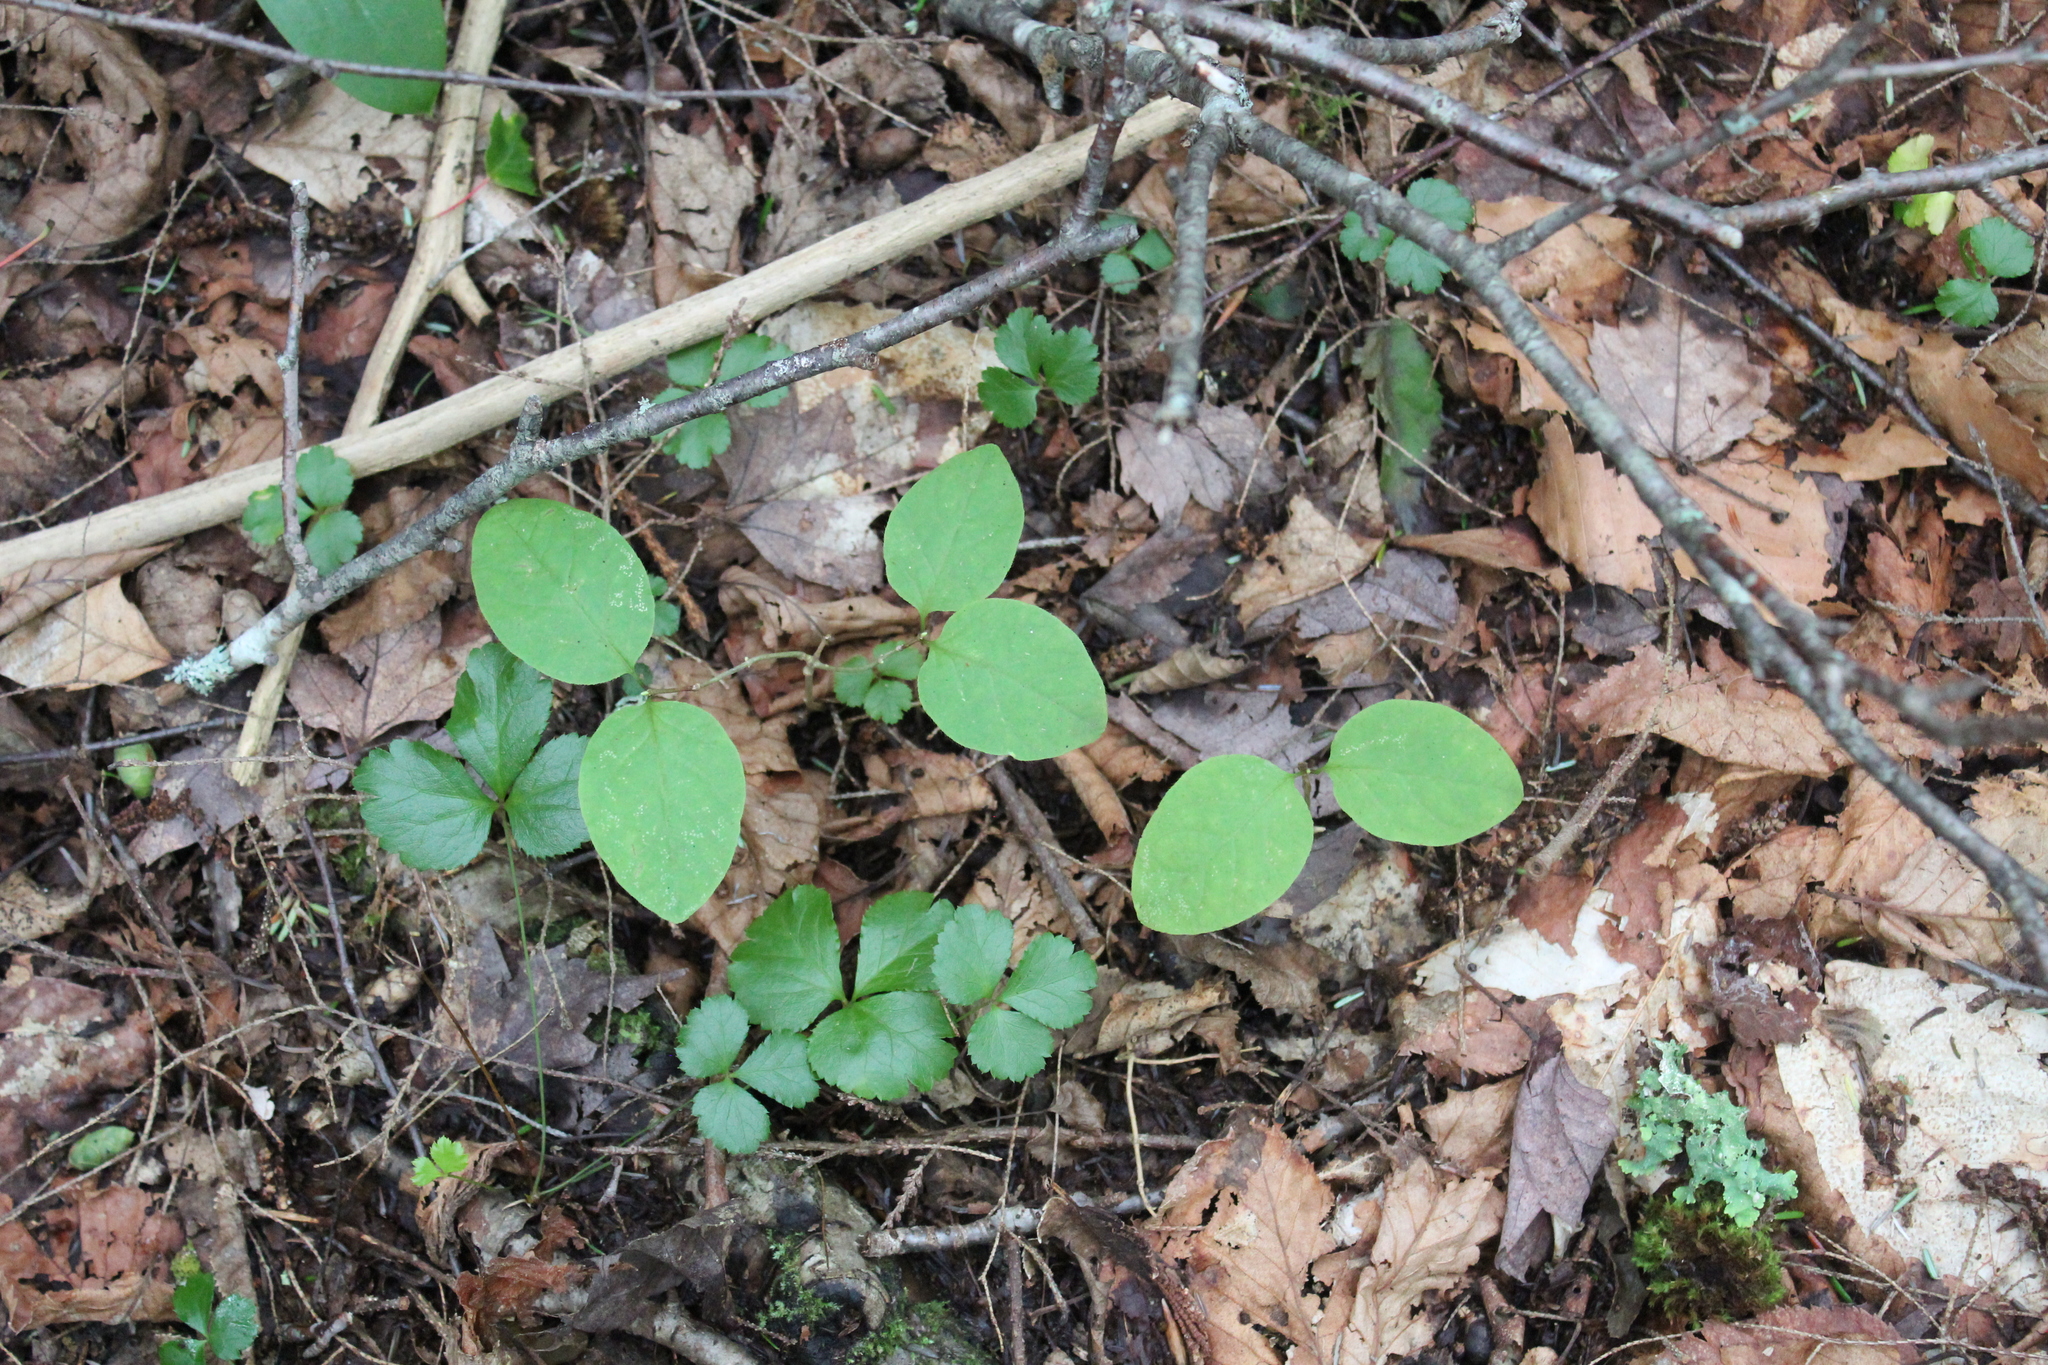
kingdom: Plantae
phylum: Tracheophyta
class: Magnoliopsida
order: Ranunculales
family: Ranunculaceae
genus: Coptis
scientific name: Coptis trifolia
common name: Canker-root
